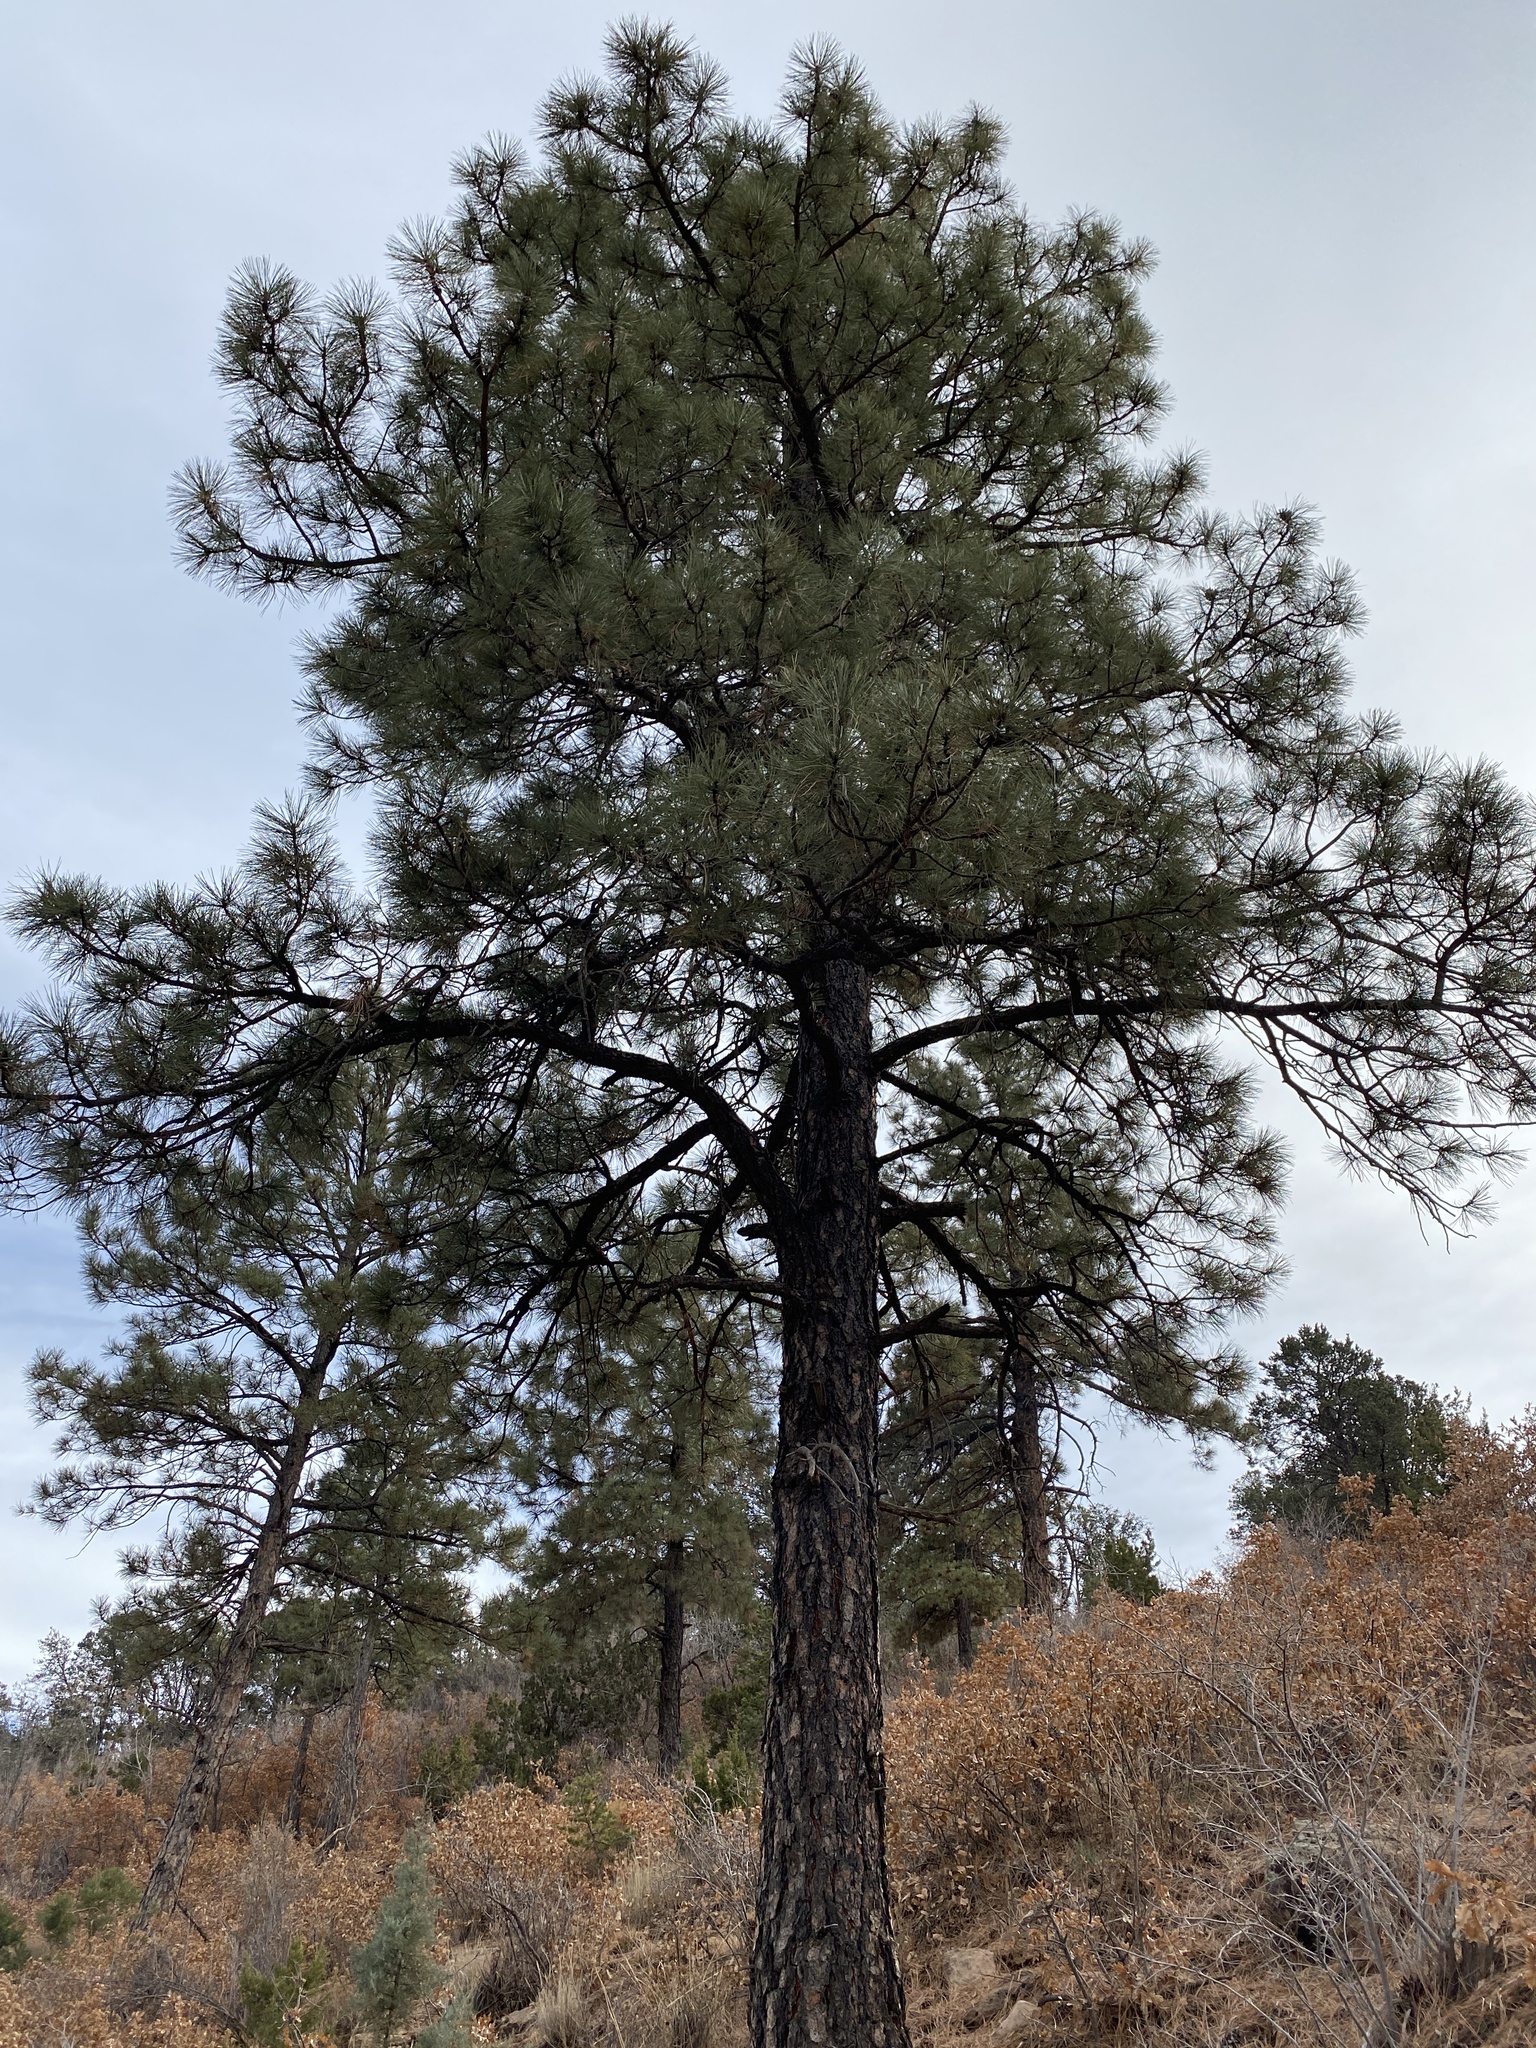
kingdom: Plantae
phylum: Tracheophyta
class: Pinopsida
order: Pinales
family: Pinaceae
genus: Pinus
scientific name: Pinus ponderosa
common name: Western yellow-pine
